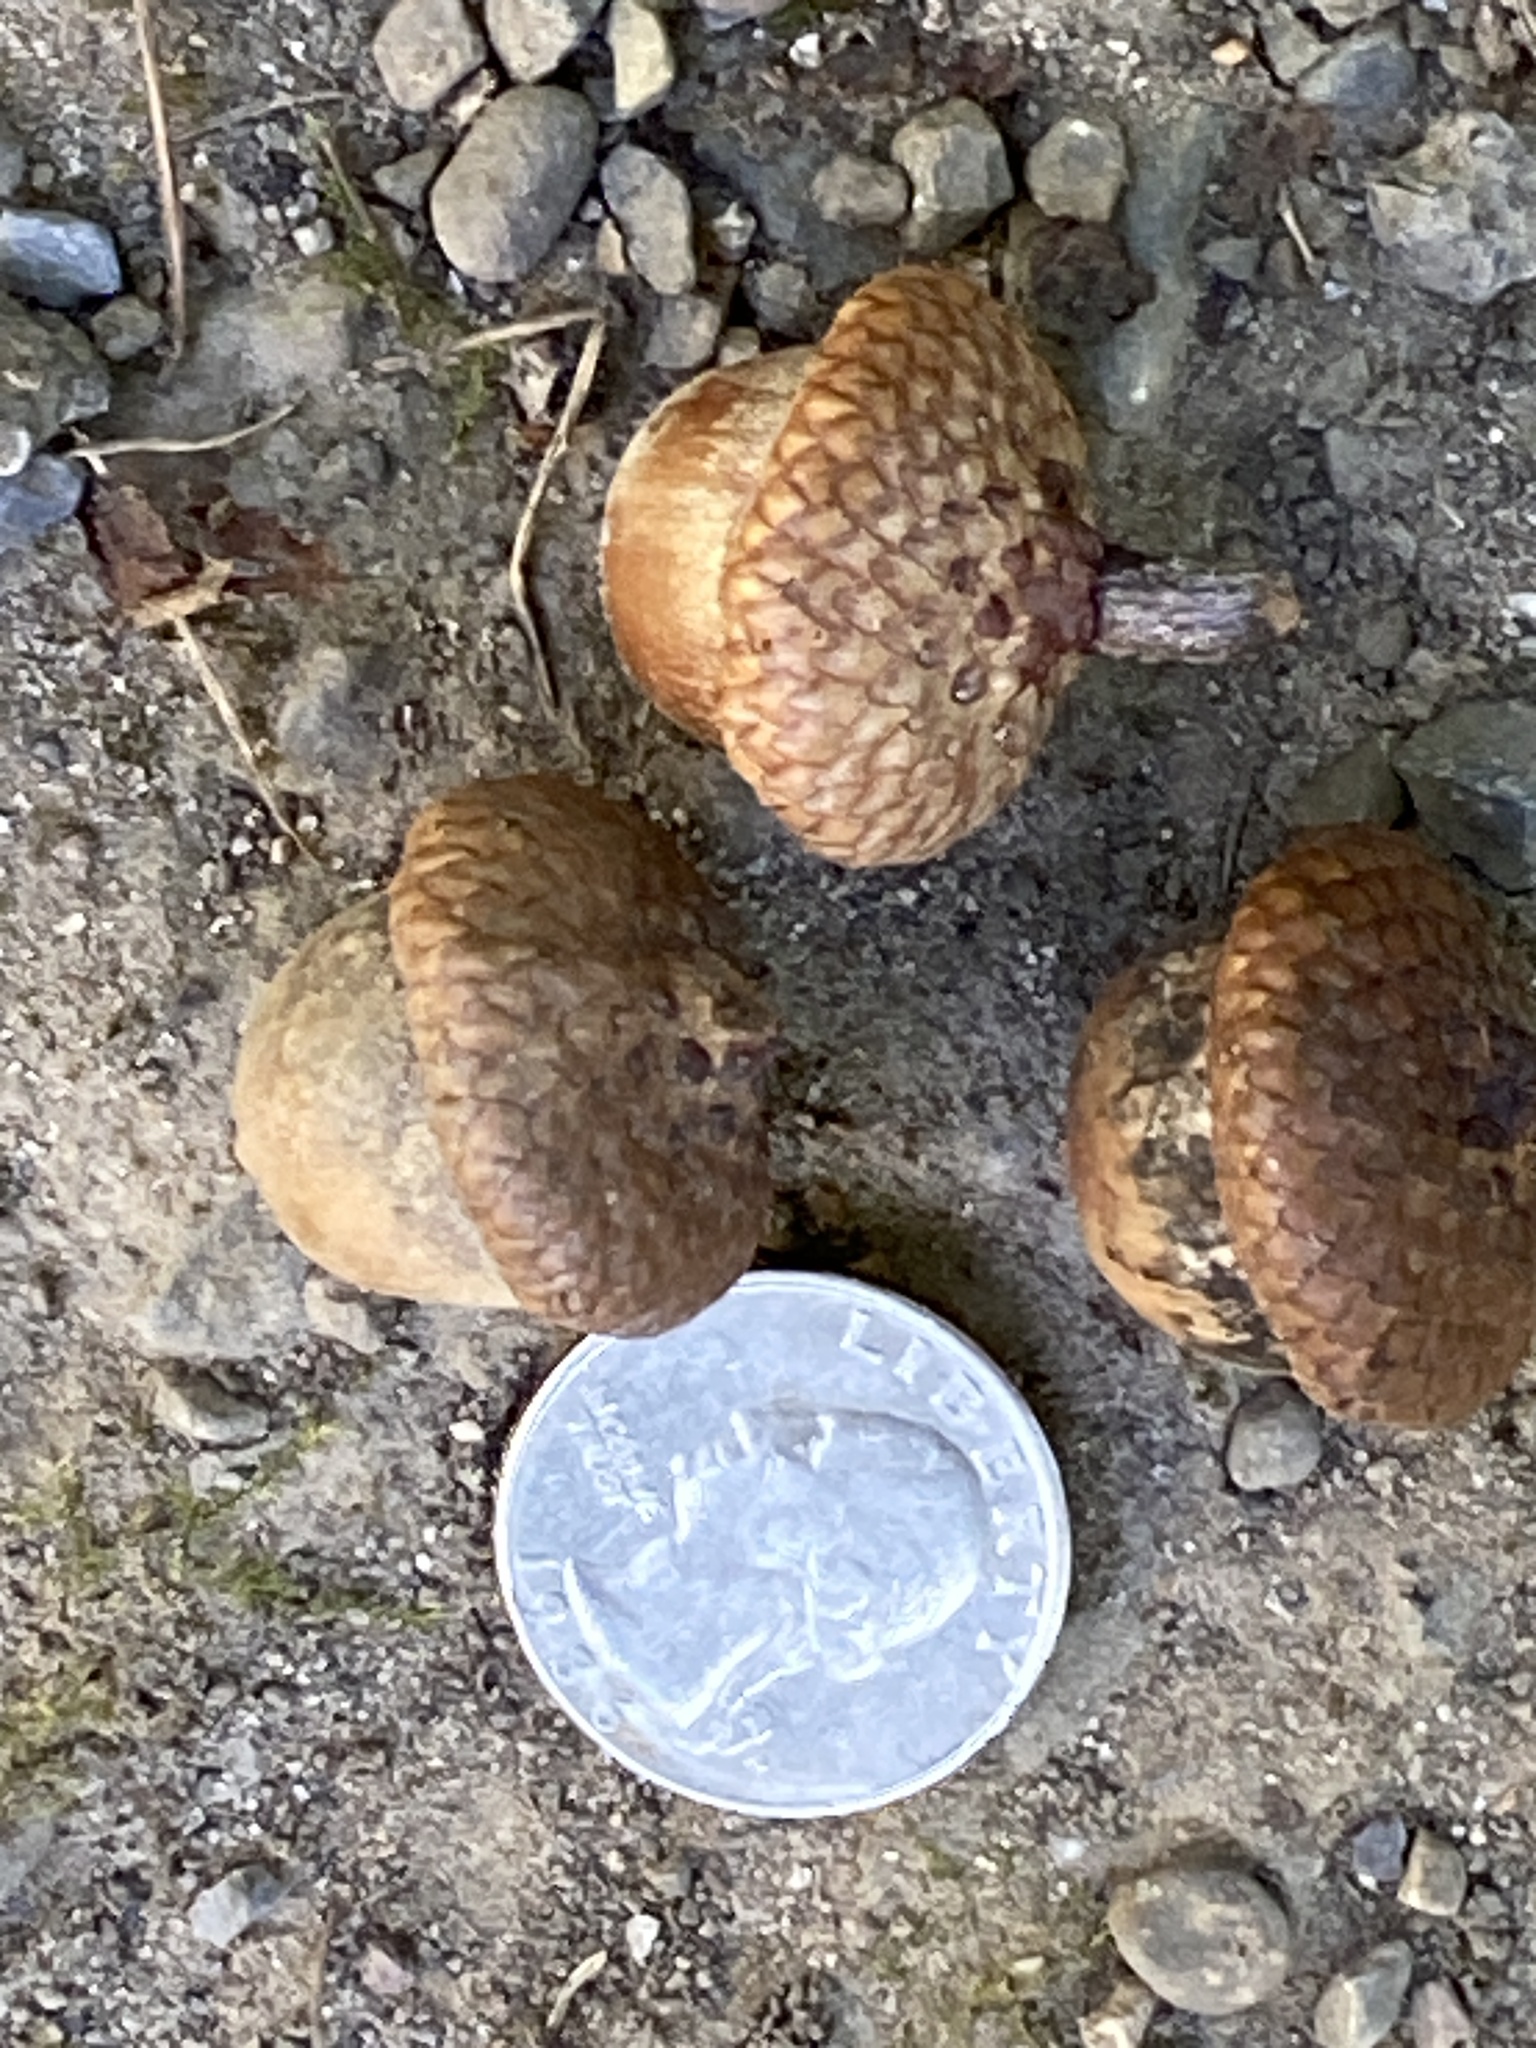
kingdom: Plantae
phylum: Tracheophyta
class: Magnoliopsida
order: Fagales
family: Fagaceae
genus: Quercus
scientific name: Quercus rubra
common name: Red oak
